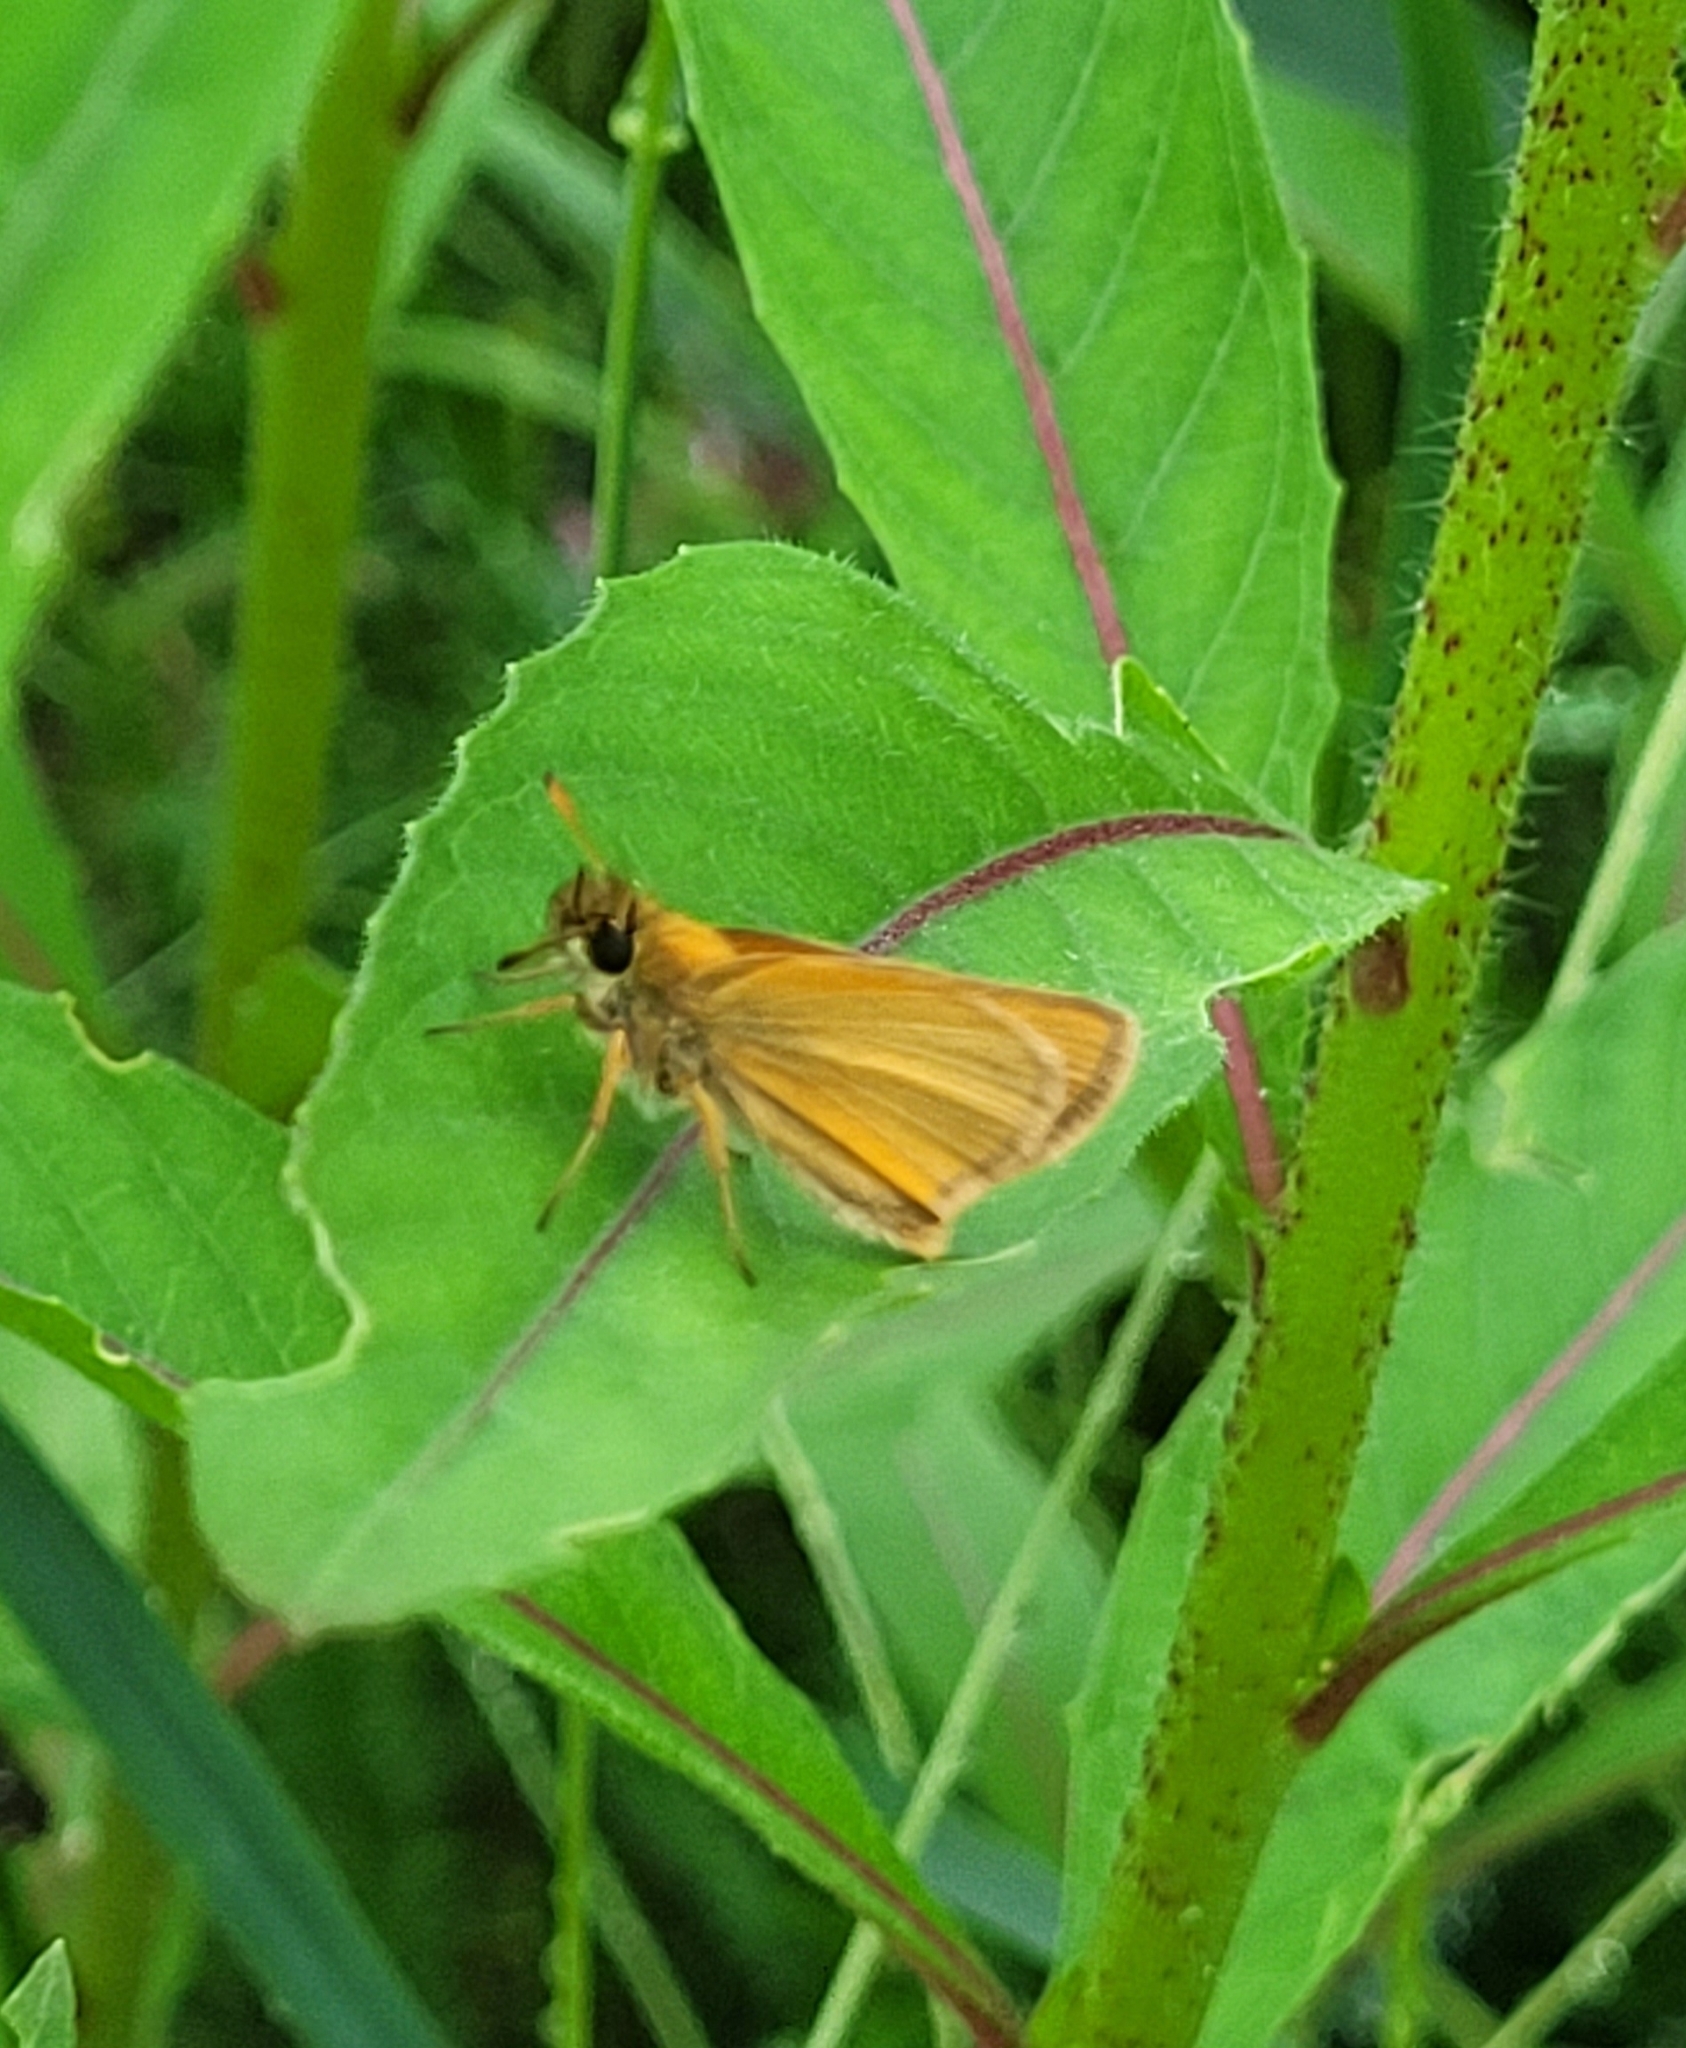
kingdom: Animalia
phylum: Arthropoda
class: Insecta
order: Lepidoptera
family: Hesperiidae
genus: Thymelicus
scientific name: Thymelicus lineola
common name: Essex skipper
